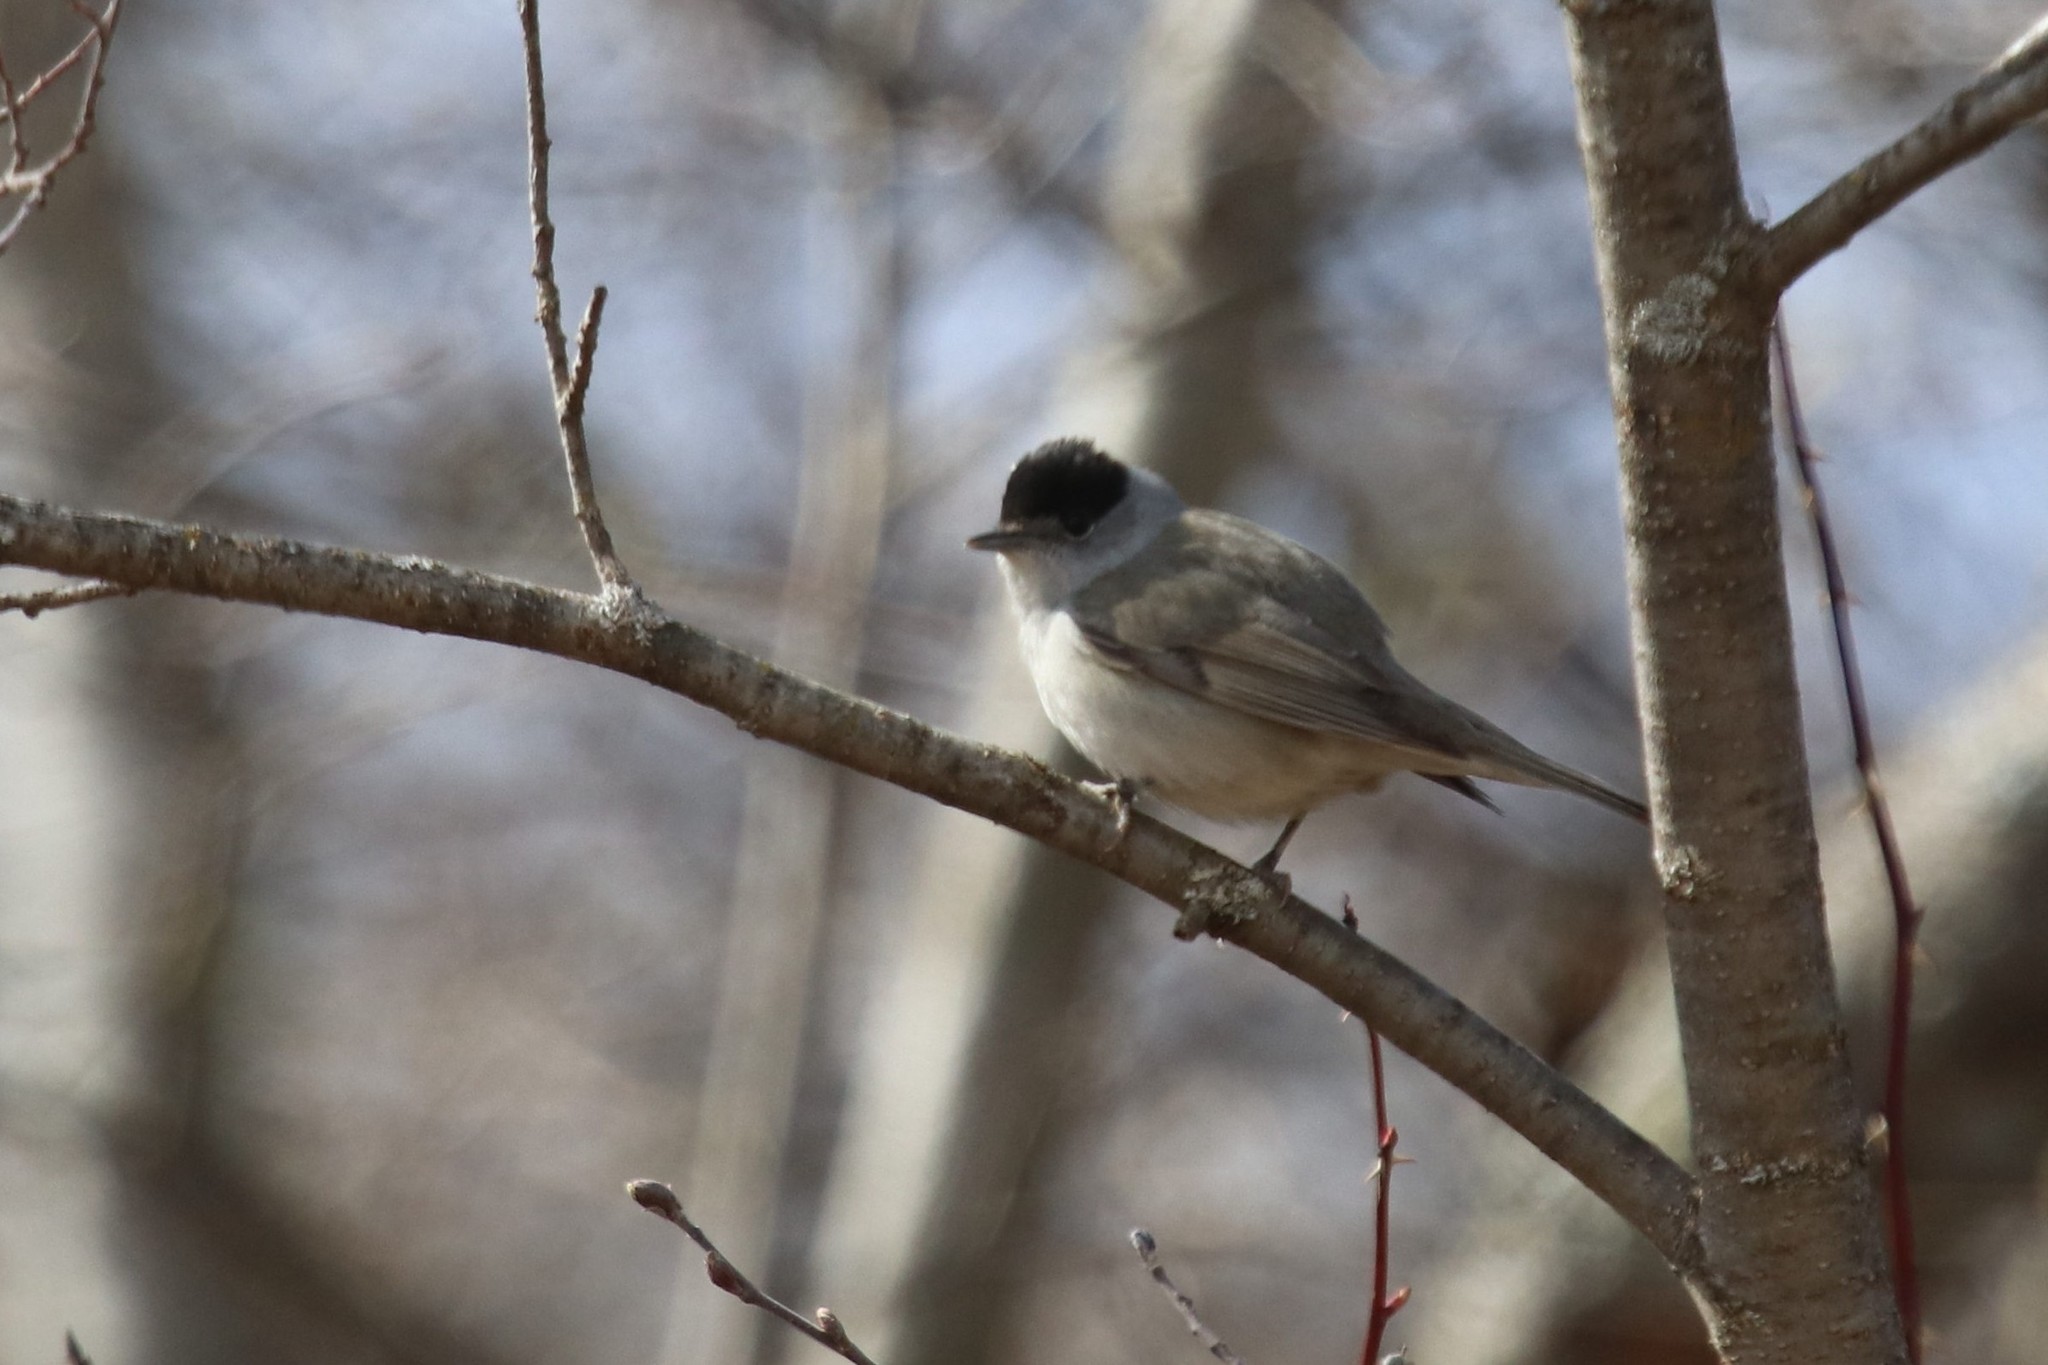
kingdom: Animalia
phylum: Chordata
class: Aves
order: Passeriformes
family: Sylviidae
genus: Sylvia
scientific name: Sylvia atricapilla
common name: Eurasian blackcap
